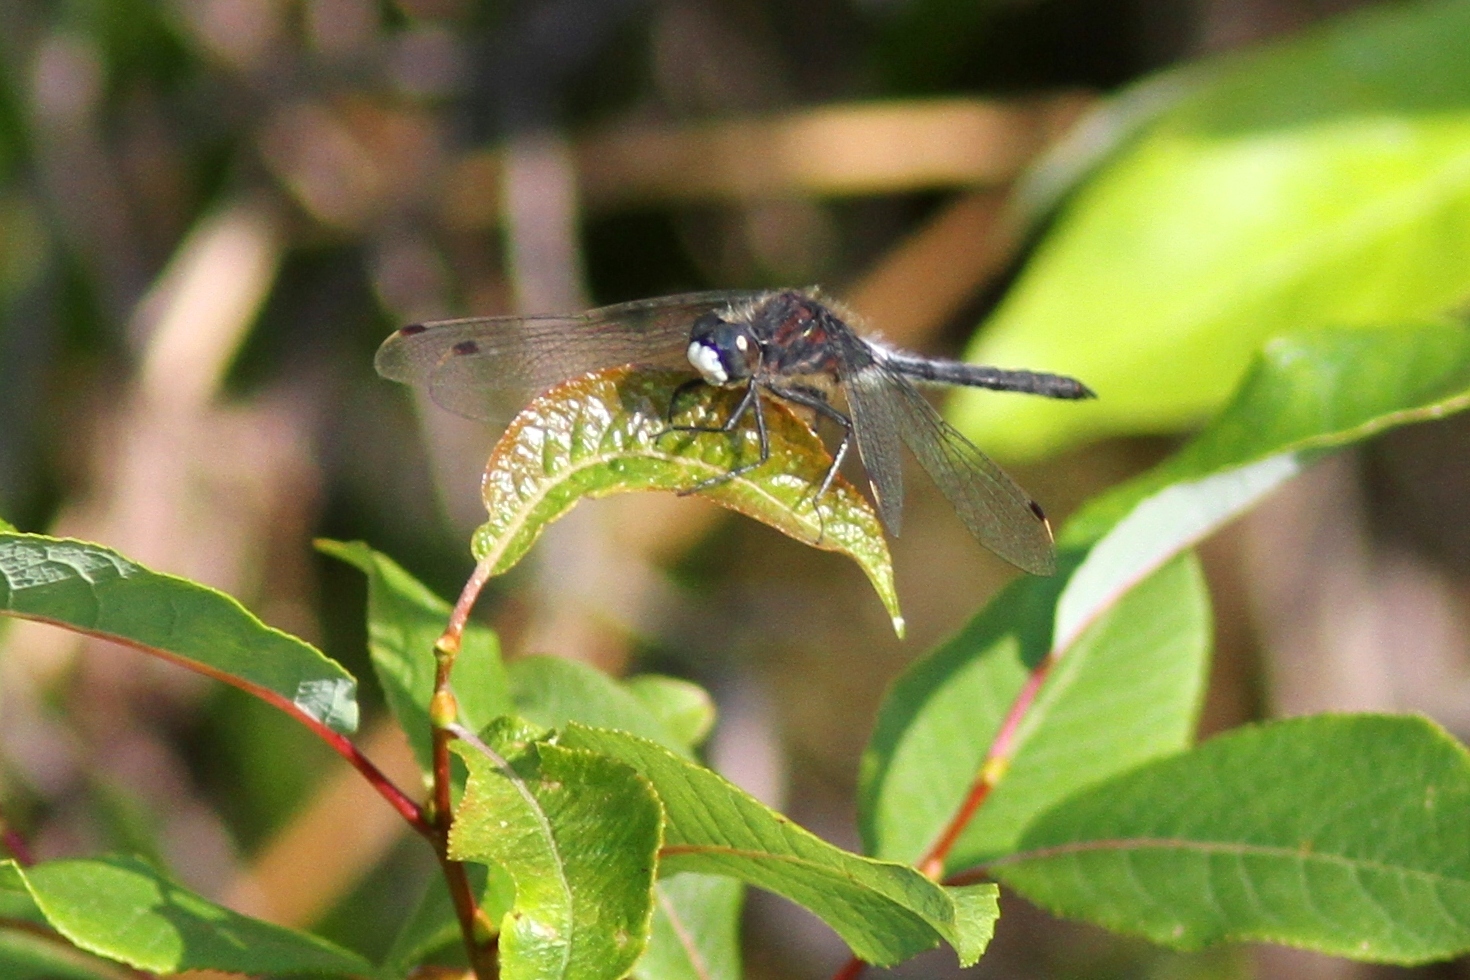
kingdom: Animalia
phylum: Arthropoda
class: Insecta
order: Odonata
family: Libellulidae
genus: Leucorrhinia
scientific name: Leucorrhinia proxima
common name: Belted whiteface
